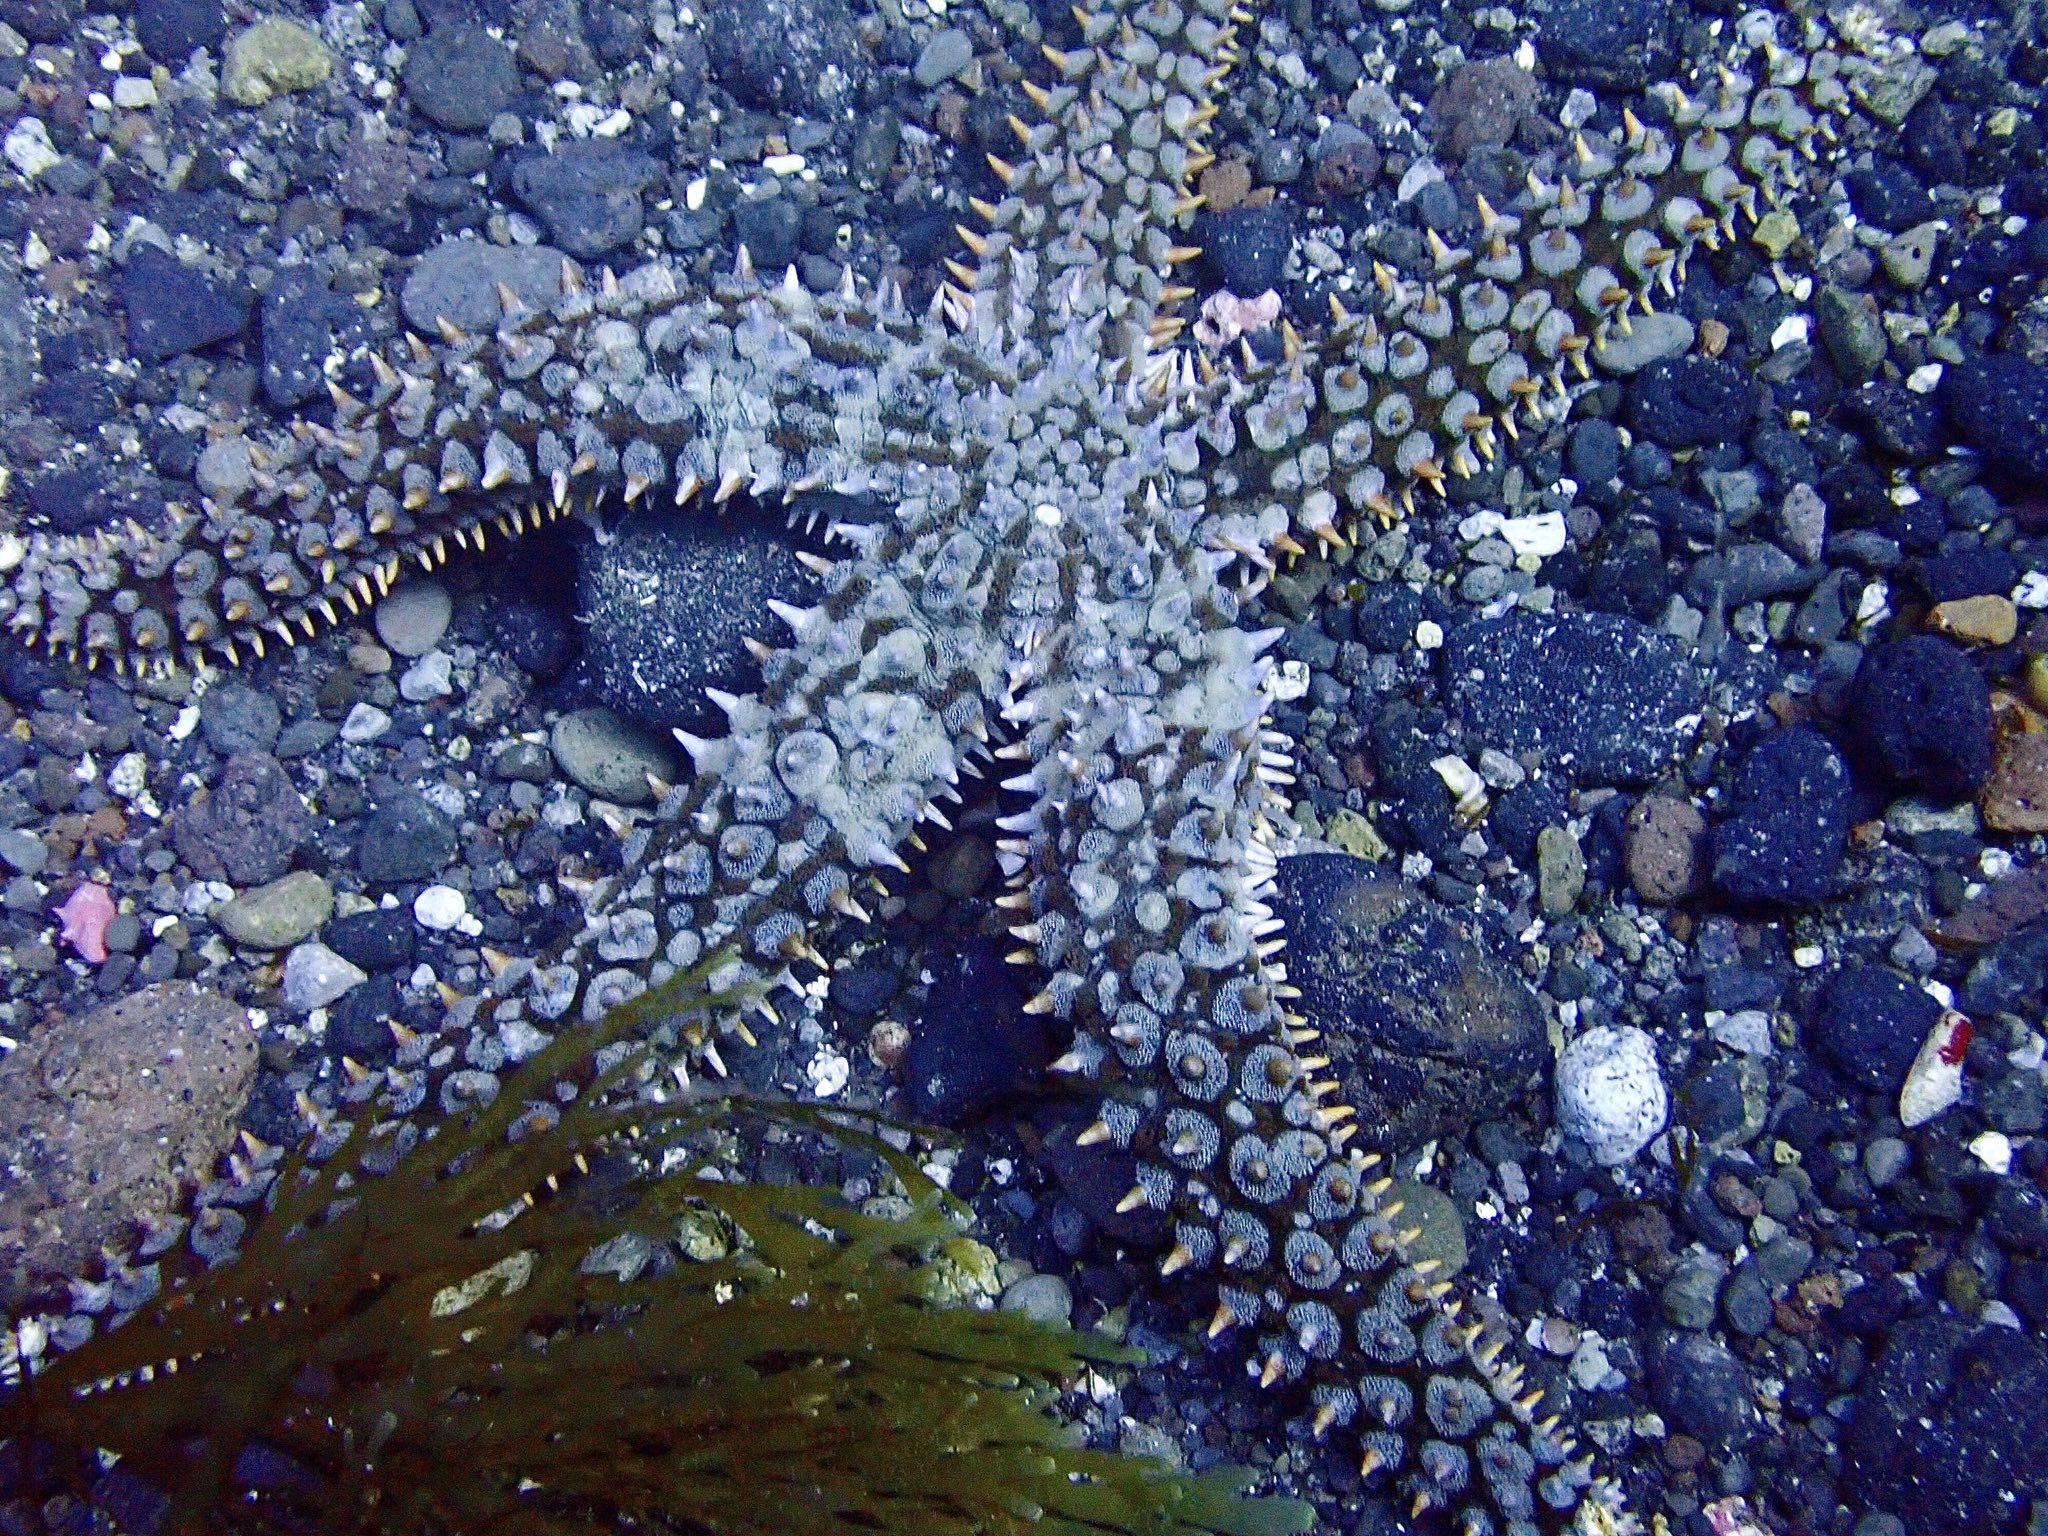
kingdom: Animalia
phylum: Echinodermata
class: Asteroidea
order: Forcipulatida
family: Asteriidae
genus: Marthasterias
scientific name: Marthasterias glacialis
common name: Spiny starfish
